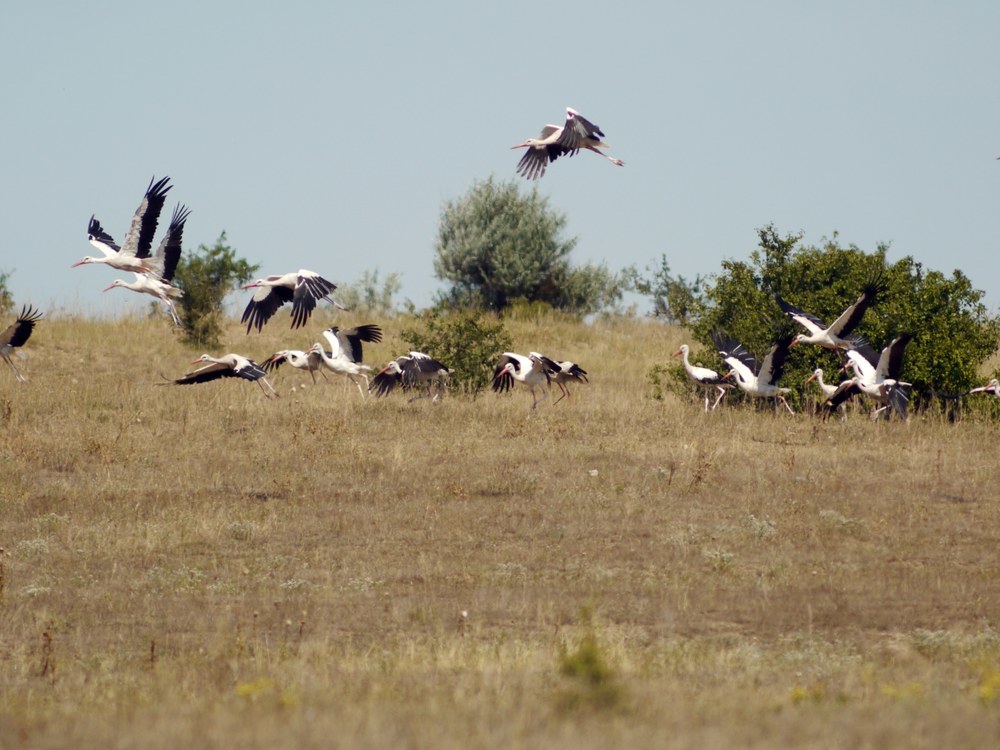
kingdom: Animalia
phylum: Chordata
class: Aves
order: Ciconiiformes
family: Ciconiidae
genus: Ciconia
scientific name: Ciconia ciconia
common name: White stork
